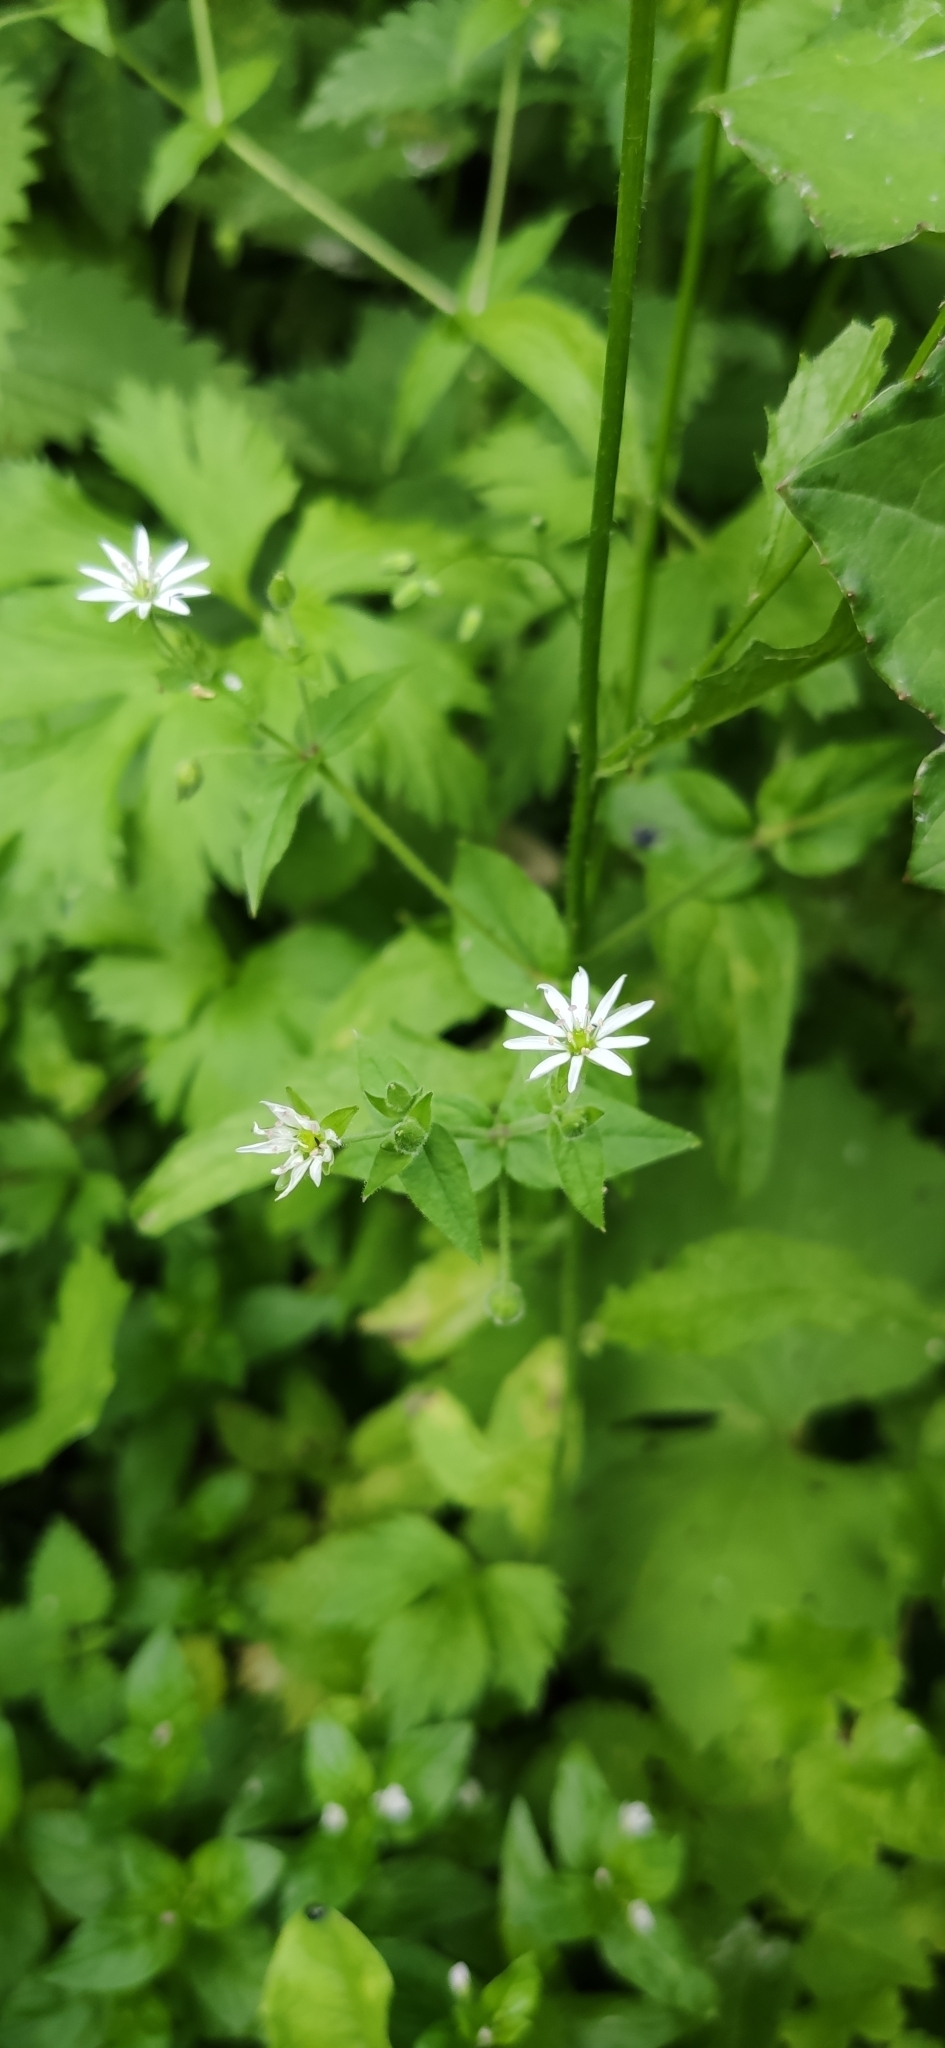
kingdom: Plantae
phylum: Tracheophyta
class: Magnoliopsida
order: Caryophyllales
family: Caryophyllaceae
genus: Stellaria
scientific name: Stellaria aquatica
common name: Water chickweed
